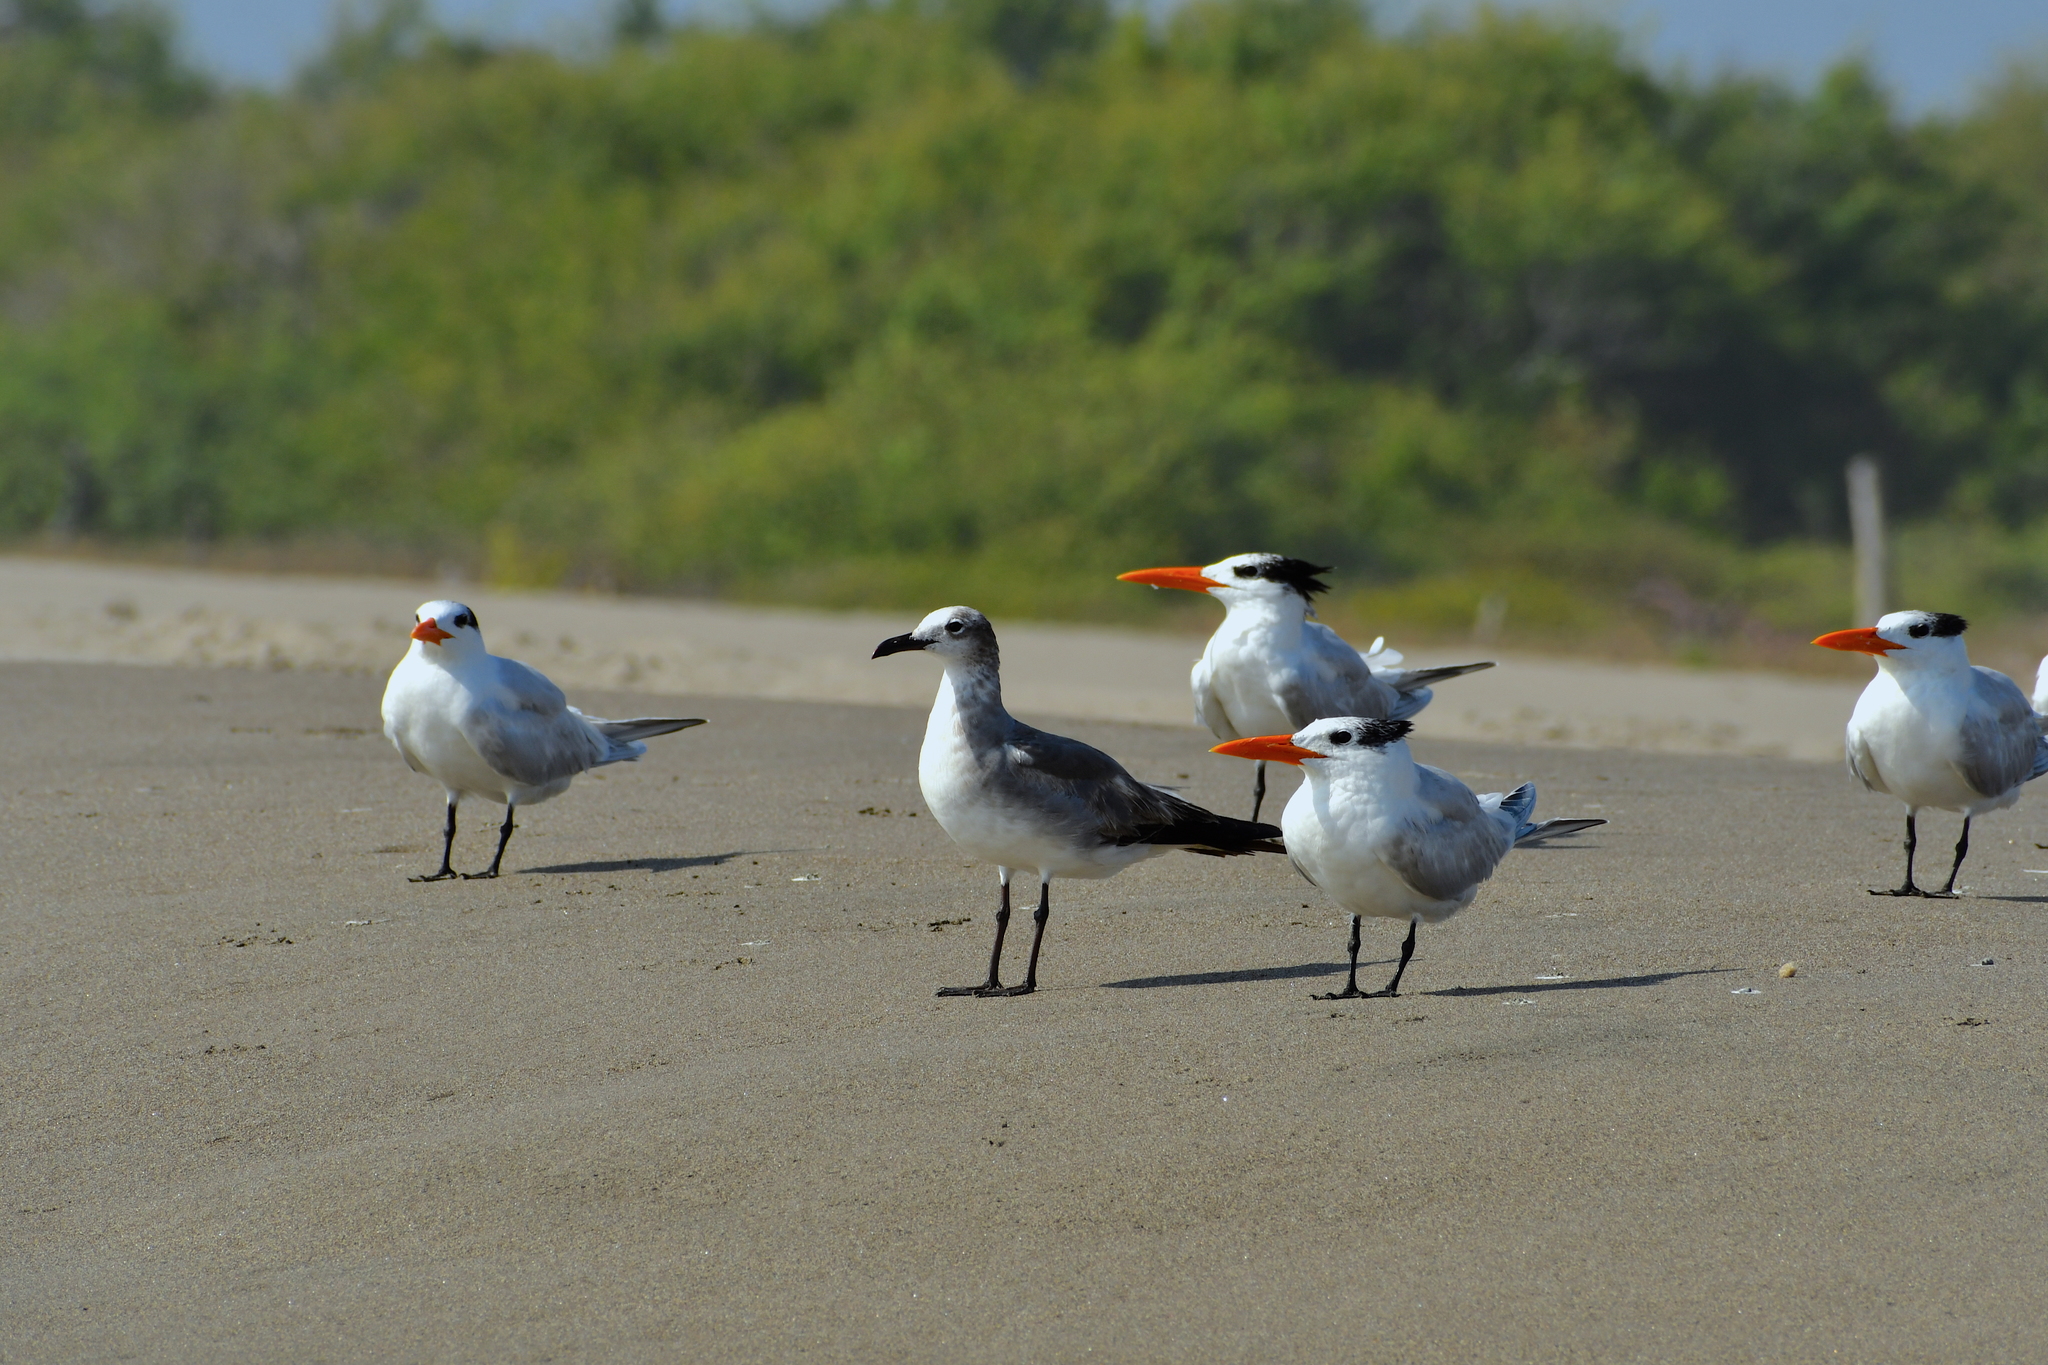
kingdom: Animalia
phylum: Chordata
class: Aves
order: Charadriiformes
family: Laridae
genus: Leucophaeus
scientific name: Leucophaeus atricilla
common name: Laughing gull
